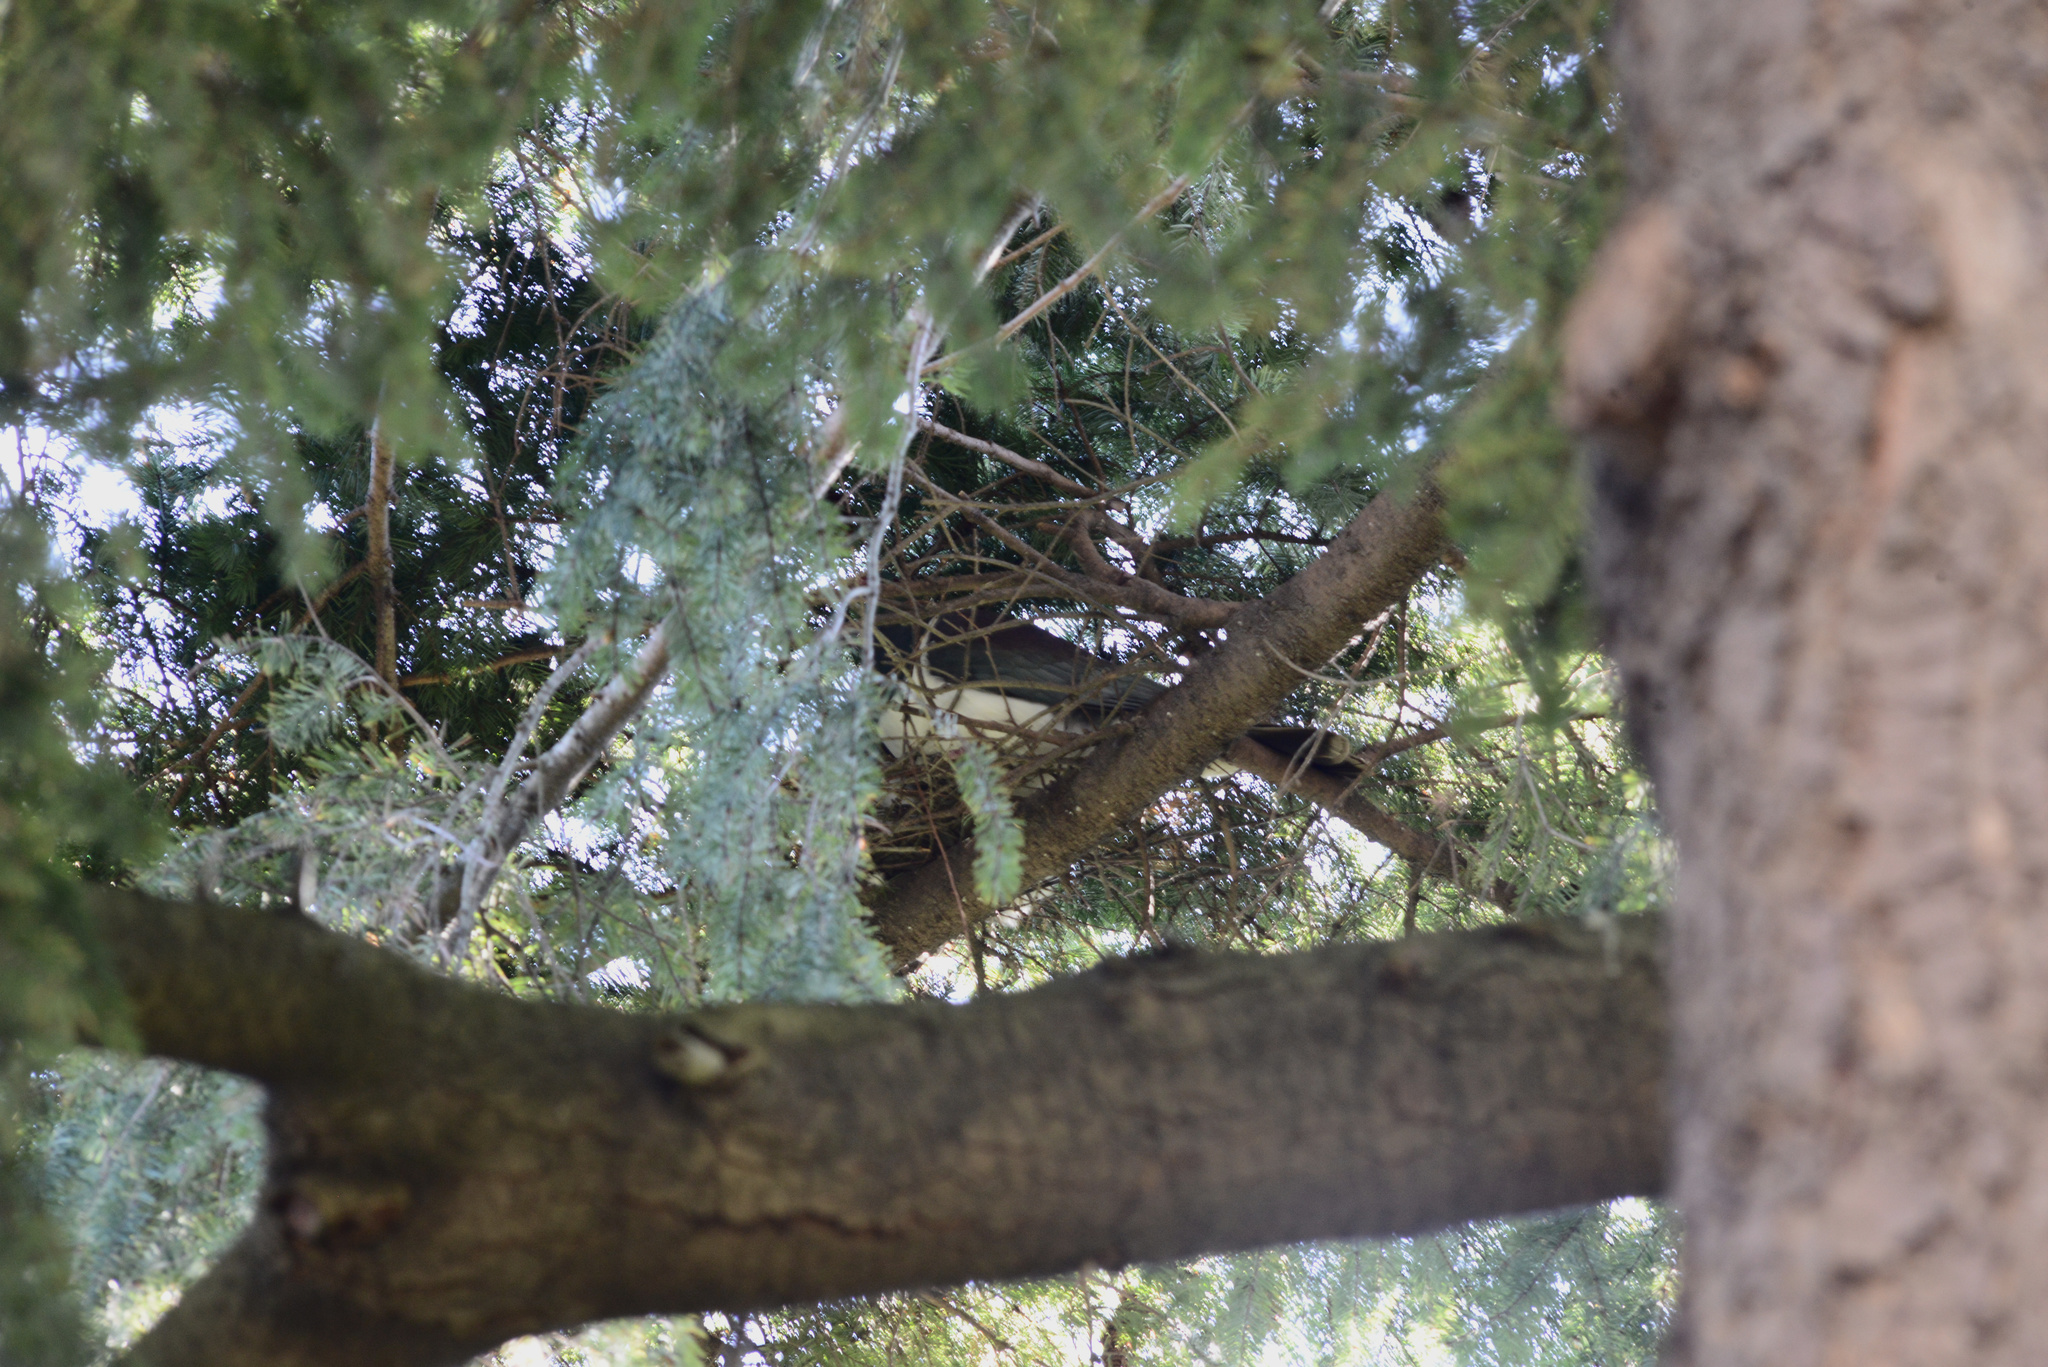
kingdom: Animalia
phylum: Chordata
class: Aves
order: Columbiformes
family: Columbidae
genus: Hemiphaga
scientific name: Hemiphaga novaeseelandiae
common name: New zealand pigeon
